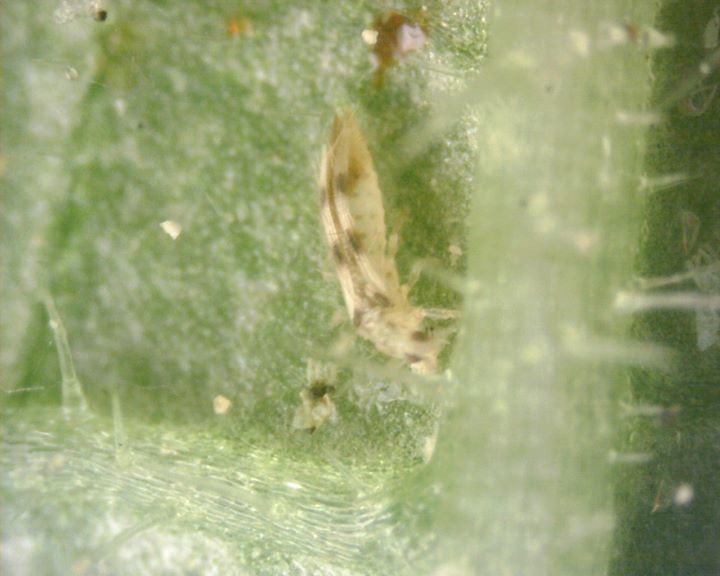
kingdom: Animalia
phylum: Arthropoda
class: Insecta
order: Thysanoptera
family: Thripidae
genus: Scolothrips
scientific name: Scolothrips sexmaculatus
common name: Common thrip
